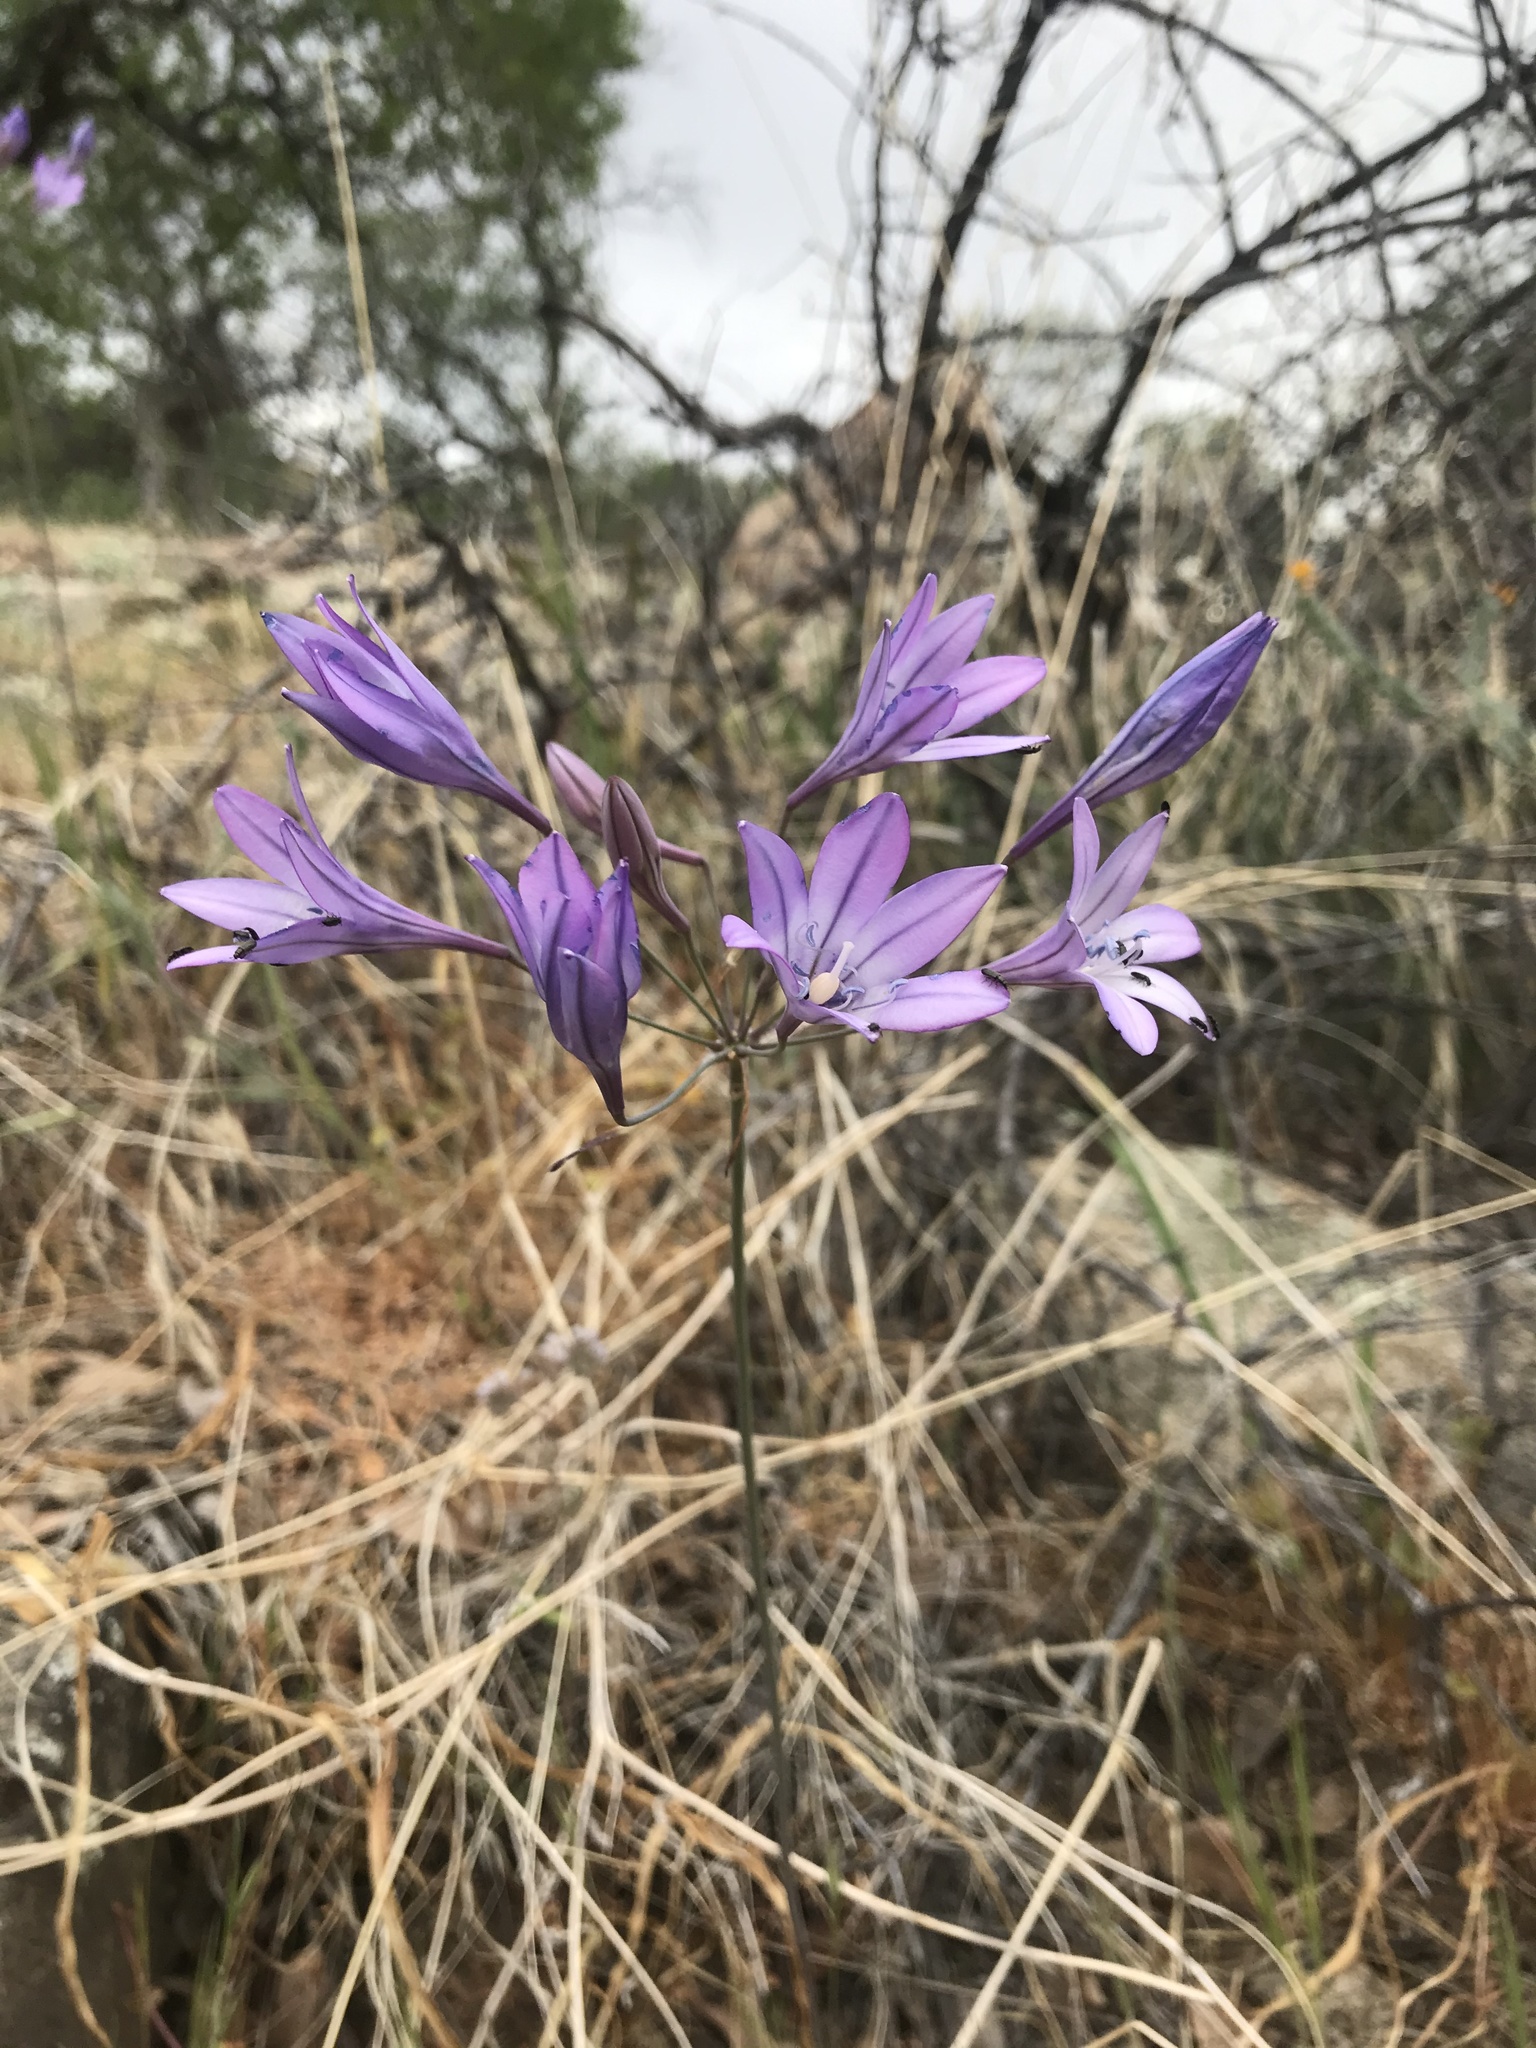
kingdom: Plantae
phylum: Tracheophyta
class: Liliopsida
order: Asparagales
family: Asparagaceae
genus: Triteleia
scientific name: Triteleia laxa
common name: Triplet-lily
